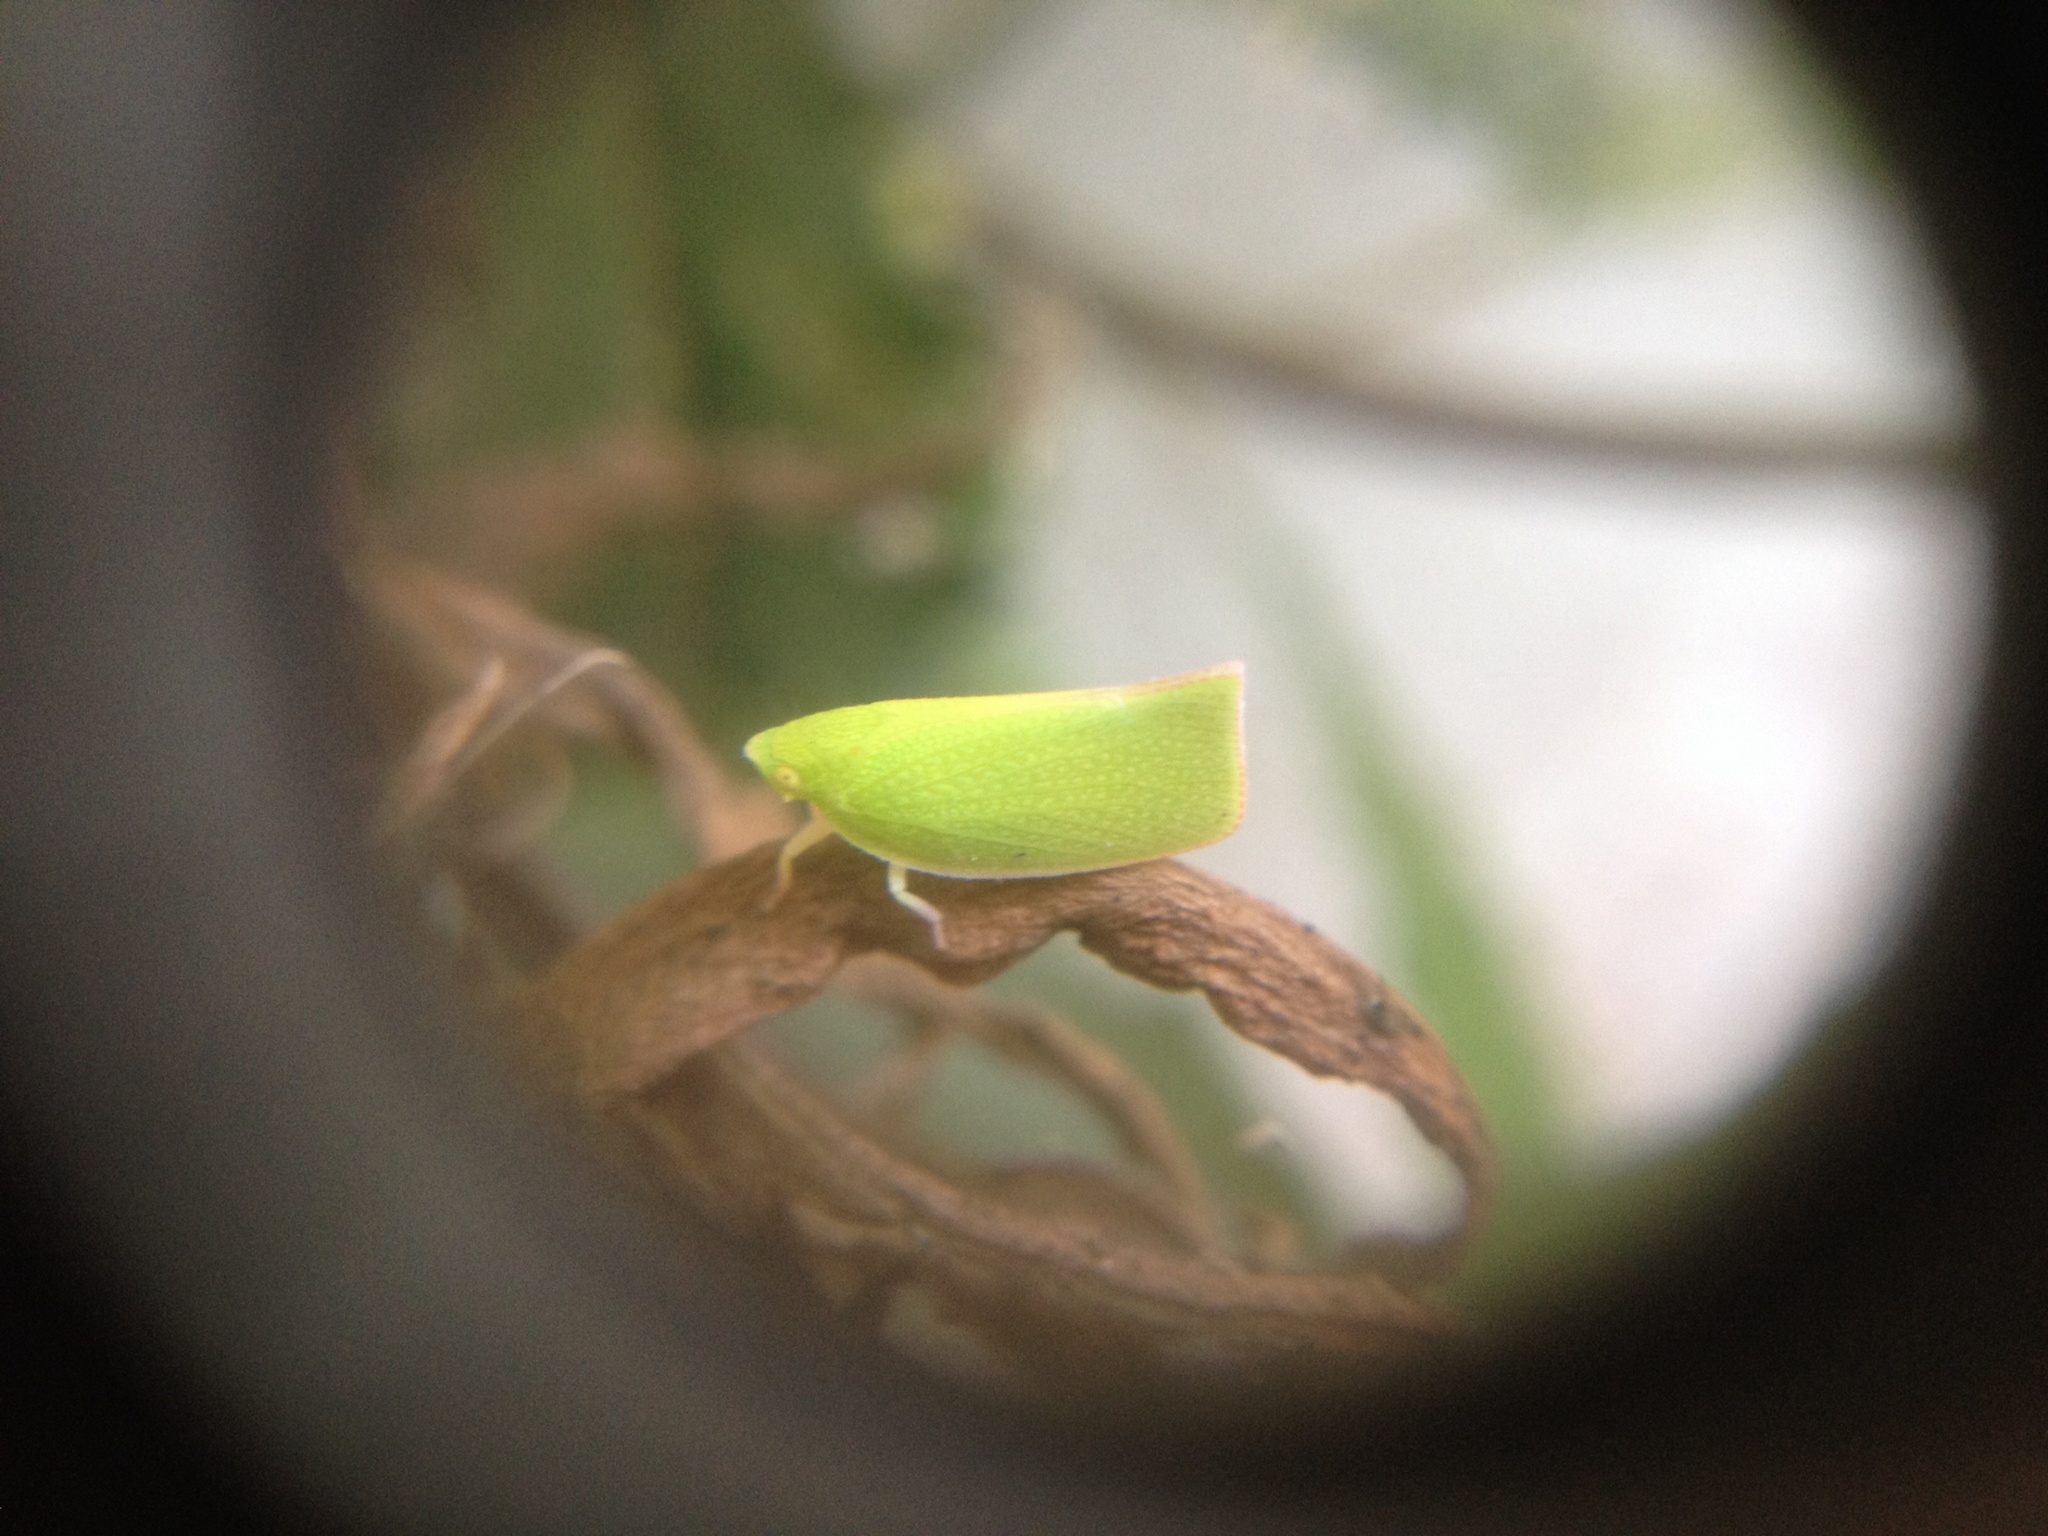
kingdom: Animalia
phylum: Arthropoda
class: Insecta
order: Hemiptera
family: Flatidae
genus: Siphanta
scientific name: Siphanta acuta
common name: Torpedo bug
